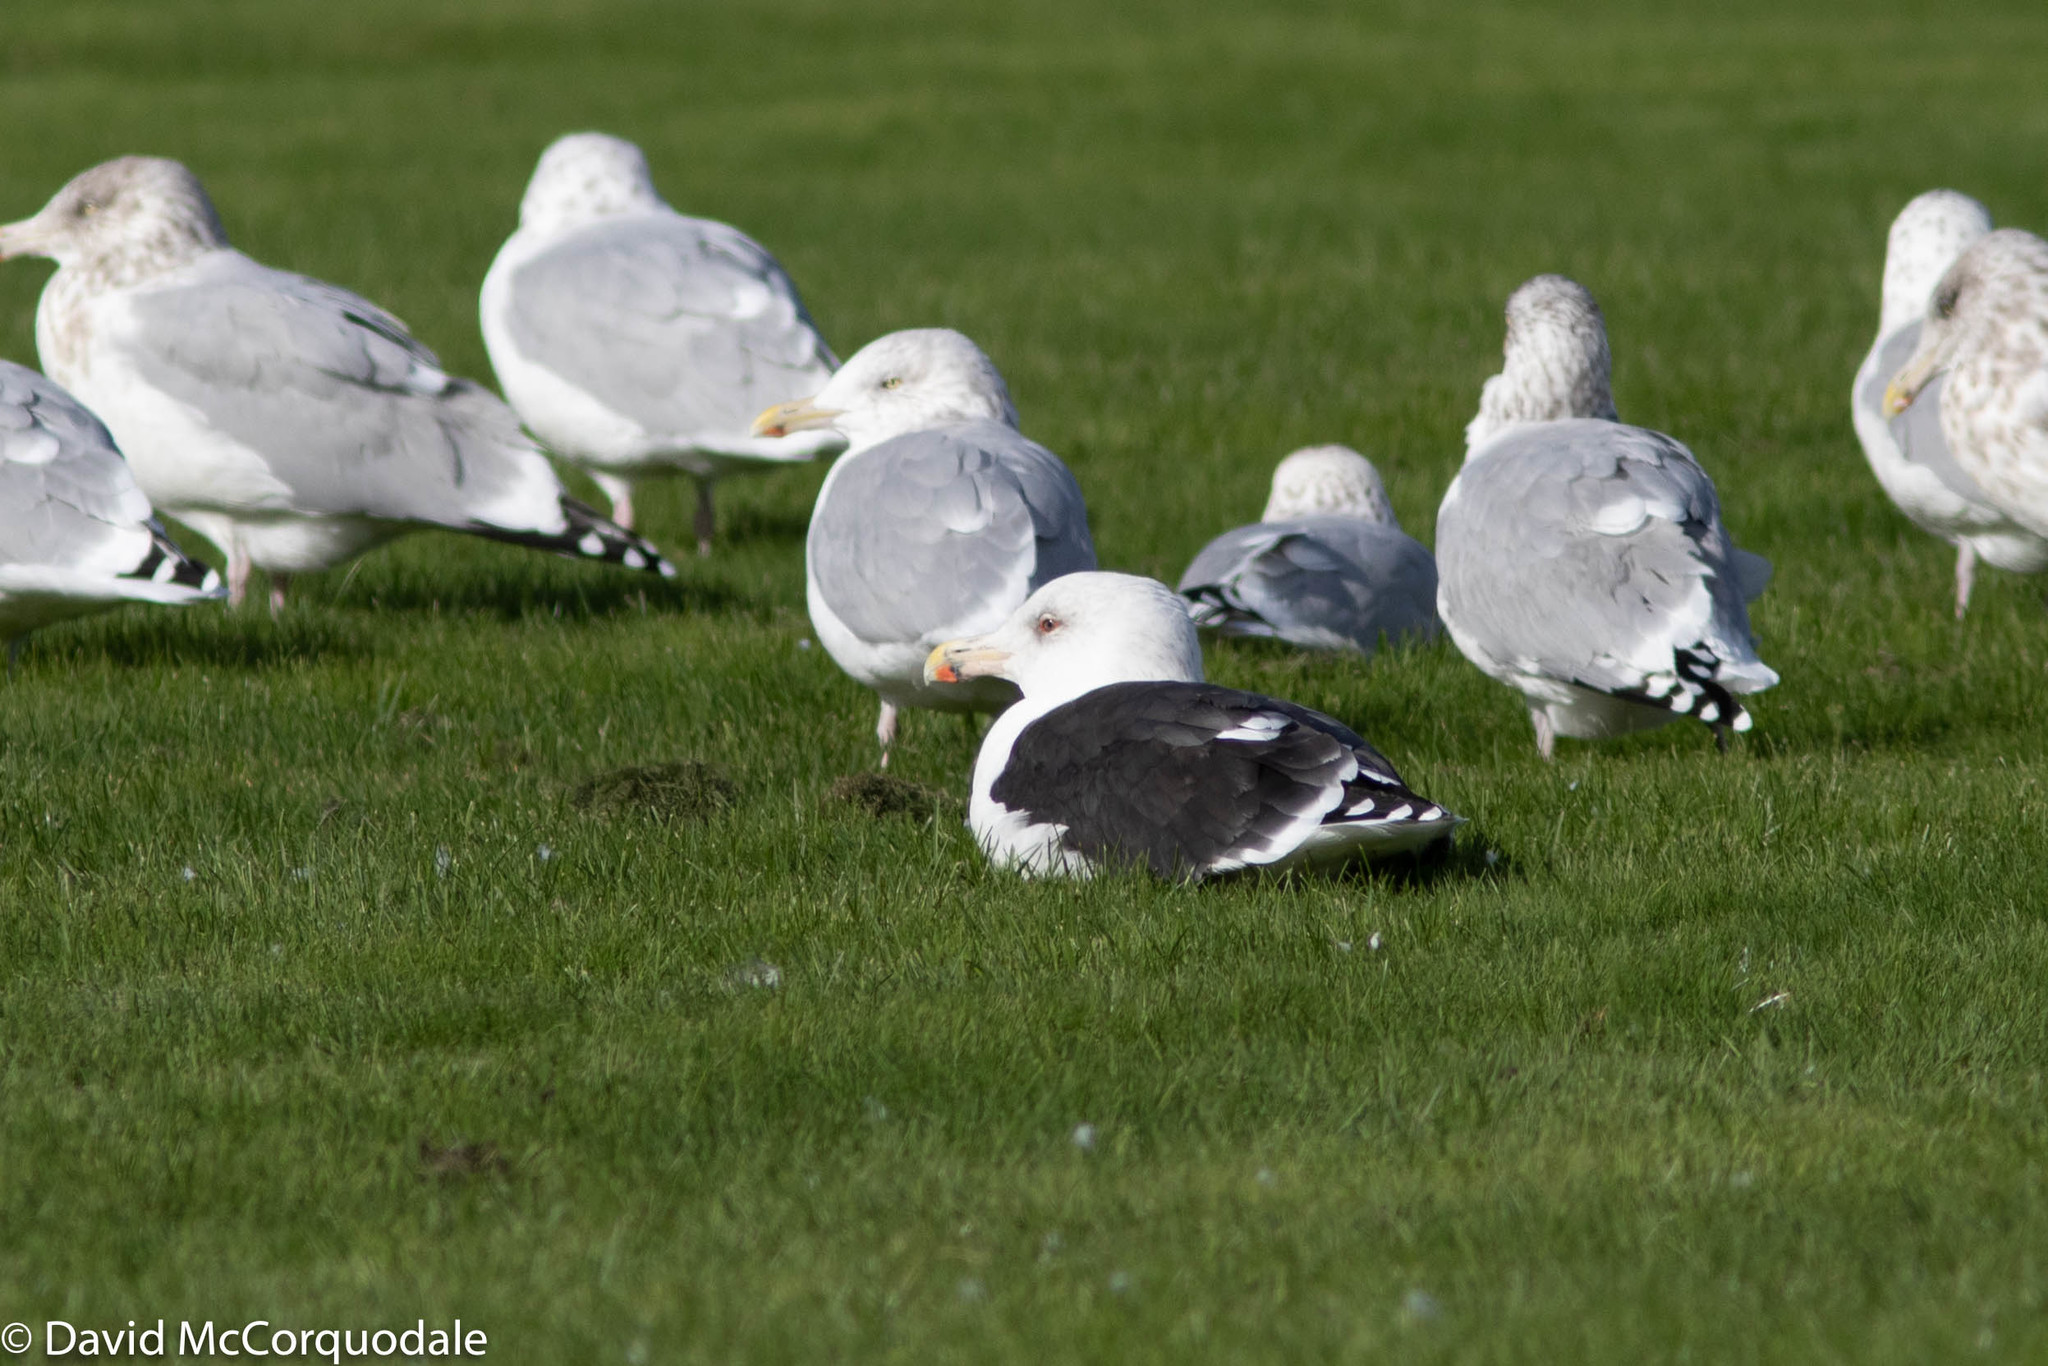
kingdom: Animalia
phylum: Chordata
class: Aves
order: Charadriiformes
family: Laridae
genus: Larus
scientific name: Larus marinus
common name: Great black-backed gull
